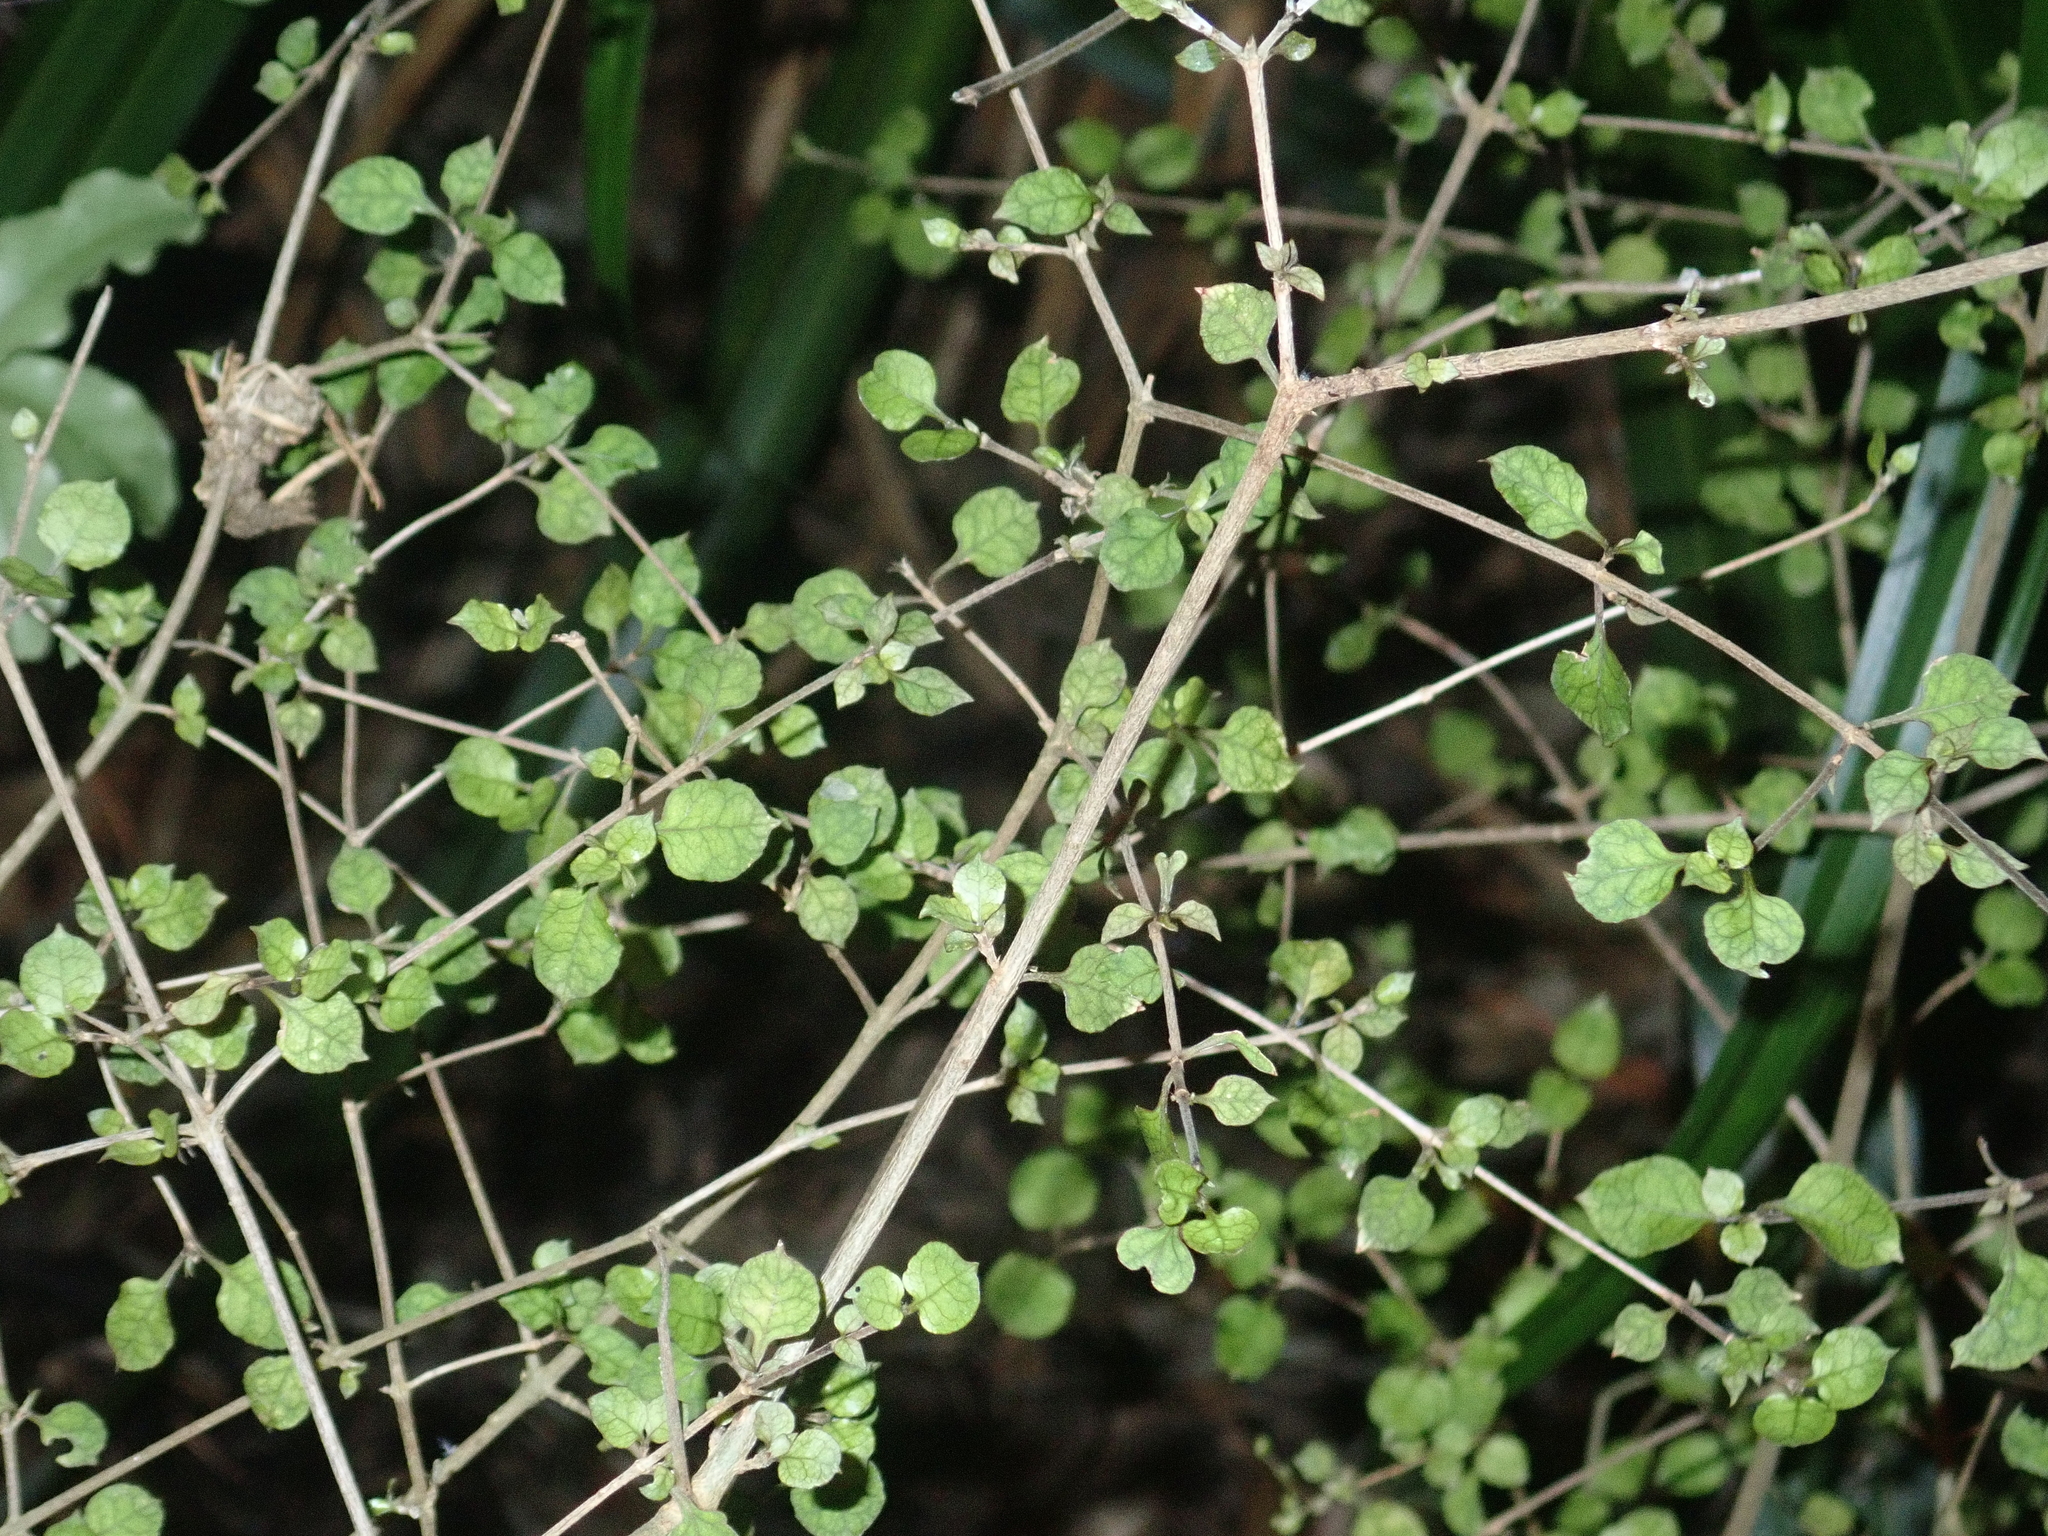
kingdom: Plantae
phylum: Tracheophyta
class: Magnoliopsida
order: Gentianales
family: Rubiaceae
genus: Coprosma
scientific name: Coprosma areolata
